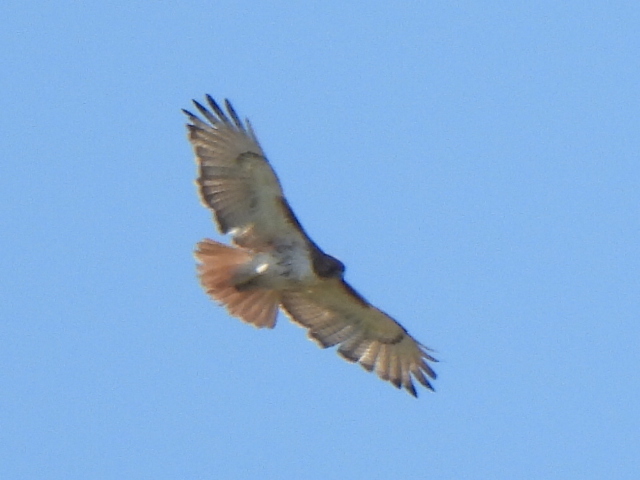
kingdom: Animalia
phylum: Chordata
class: Aves
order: Accipitriformes
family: Accipitridae
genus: Buteo
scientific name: Buteo jamaicensis
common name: Red-tailed hawk
